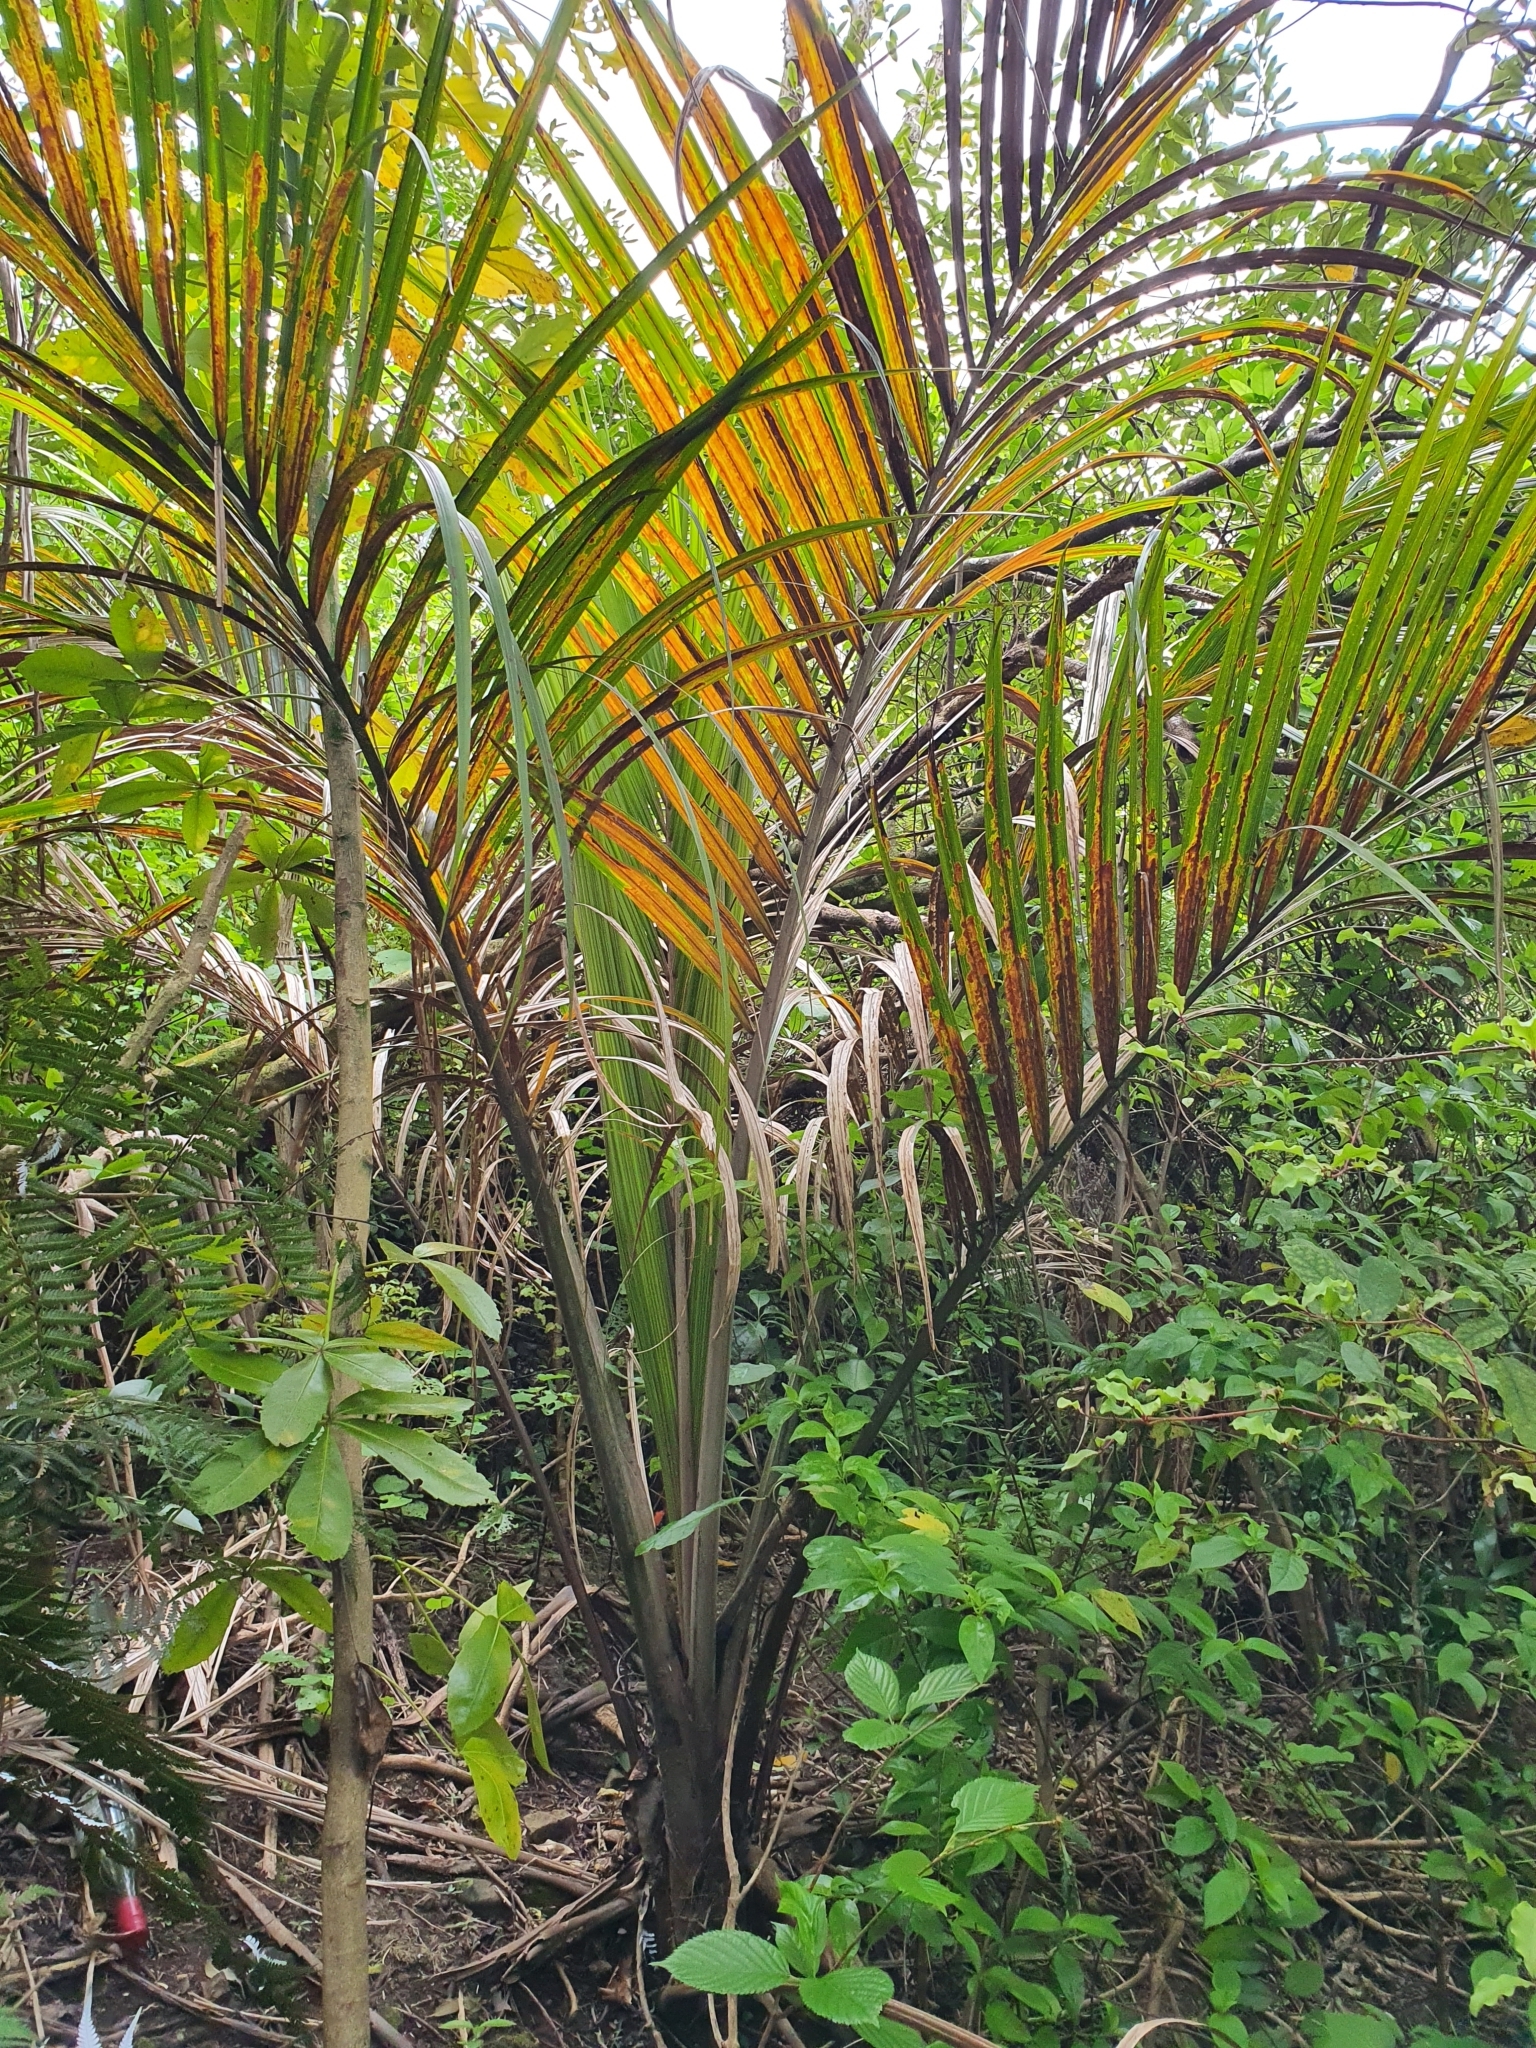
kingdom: Plantae
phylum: Tracheophyta
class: Liliopsida
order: Arecales
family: Arecaceae
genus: Rhopalostylis
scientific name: Rhopalostylis sapida
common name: Feather-duster palm
